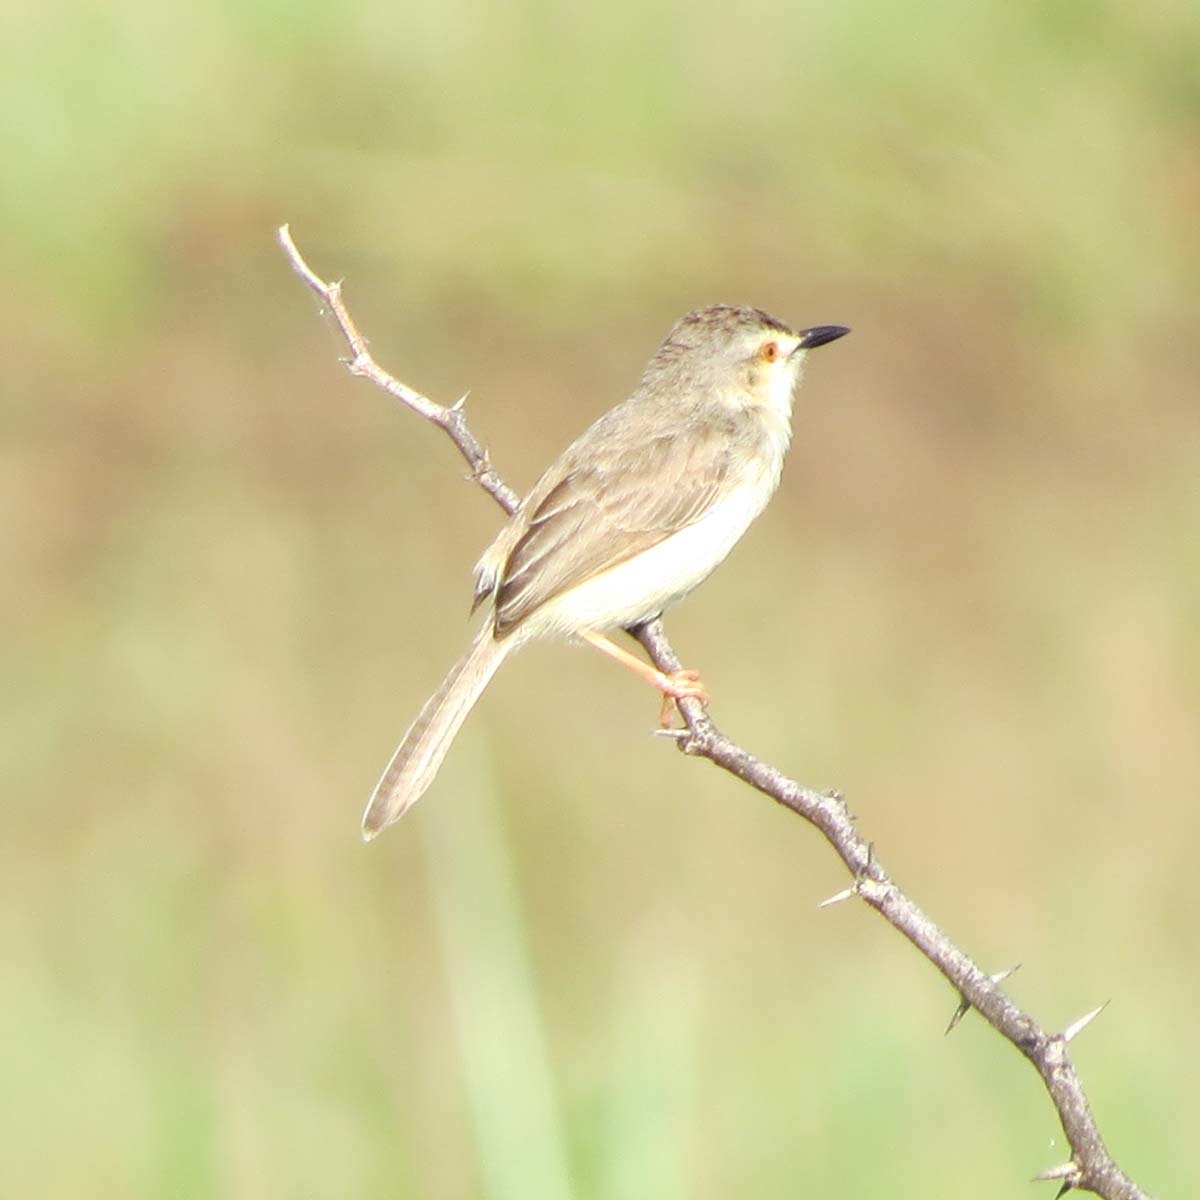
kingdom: Animalia
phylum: Chordata
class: Aves
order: Passeriformes
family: Cisticolidae
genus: Prinia
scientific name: Prinia inornata
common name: Plain prinia
